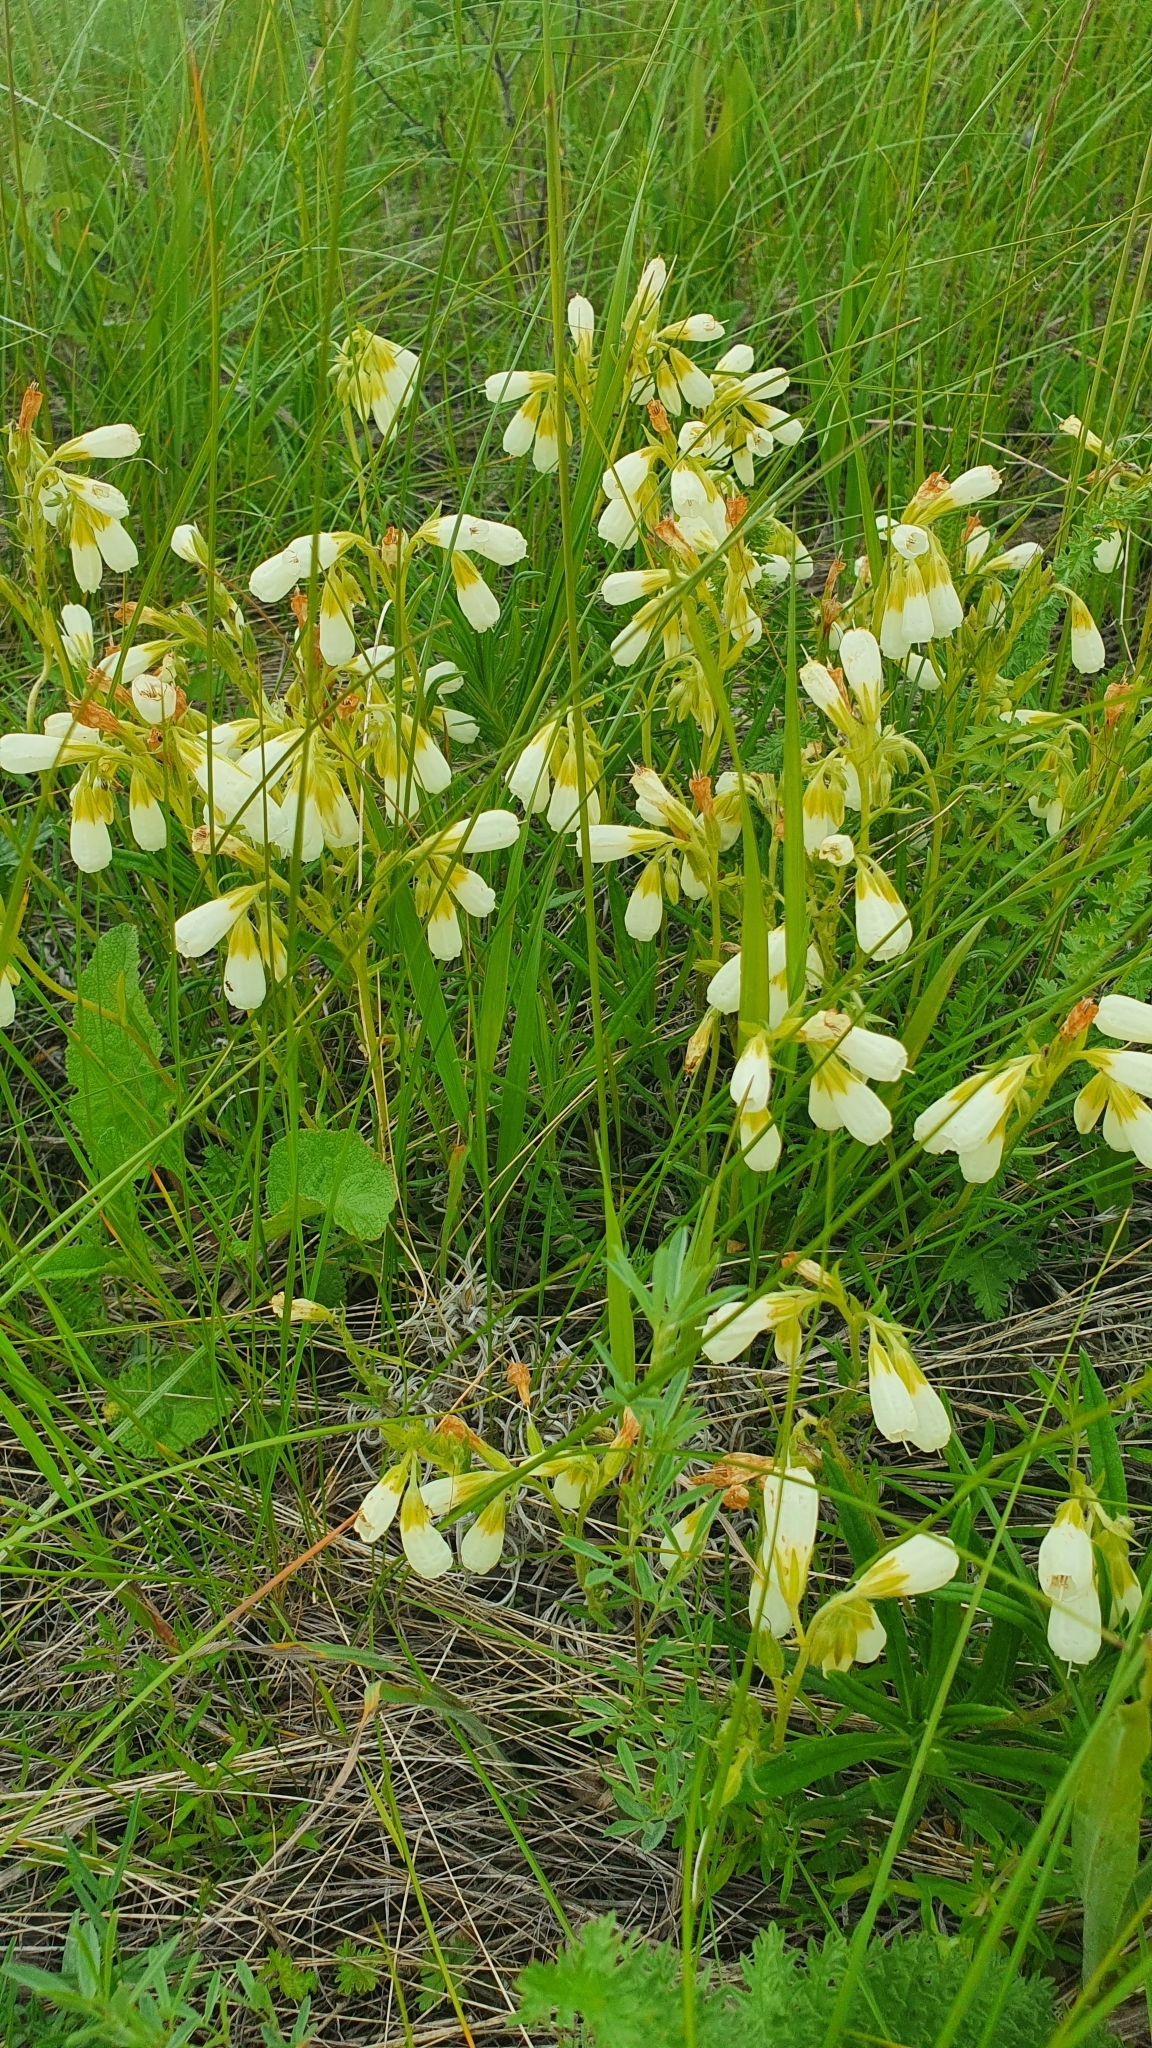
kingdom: Plantae
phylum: Tracheophyta
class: Magnoliopsida
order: Boraginales
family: Boraginaceae
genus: Onosma
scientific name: Onosma simplicissima
